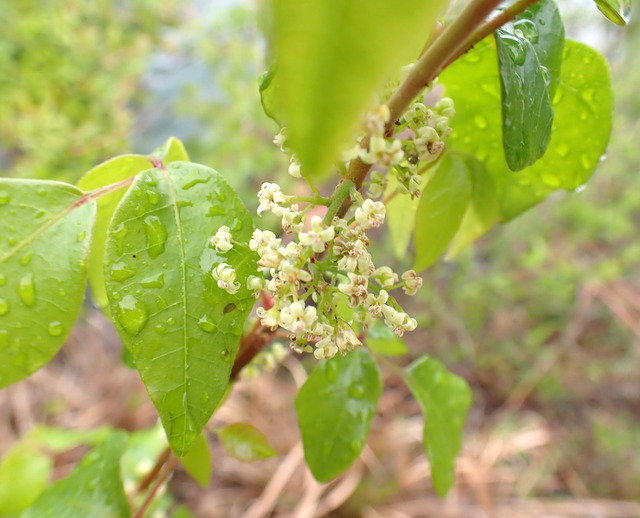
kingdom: Plantae
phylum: Tracheophyta
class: Magnoliopsida
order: Sapindales
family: Anacardiaceae
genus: Toxicodendron
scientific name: Toxicodendron radicans
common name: Poison ivy
